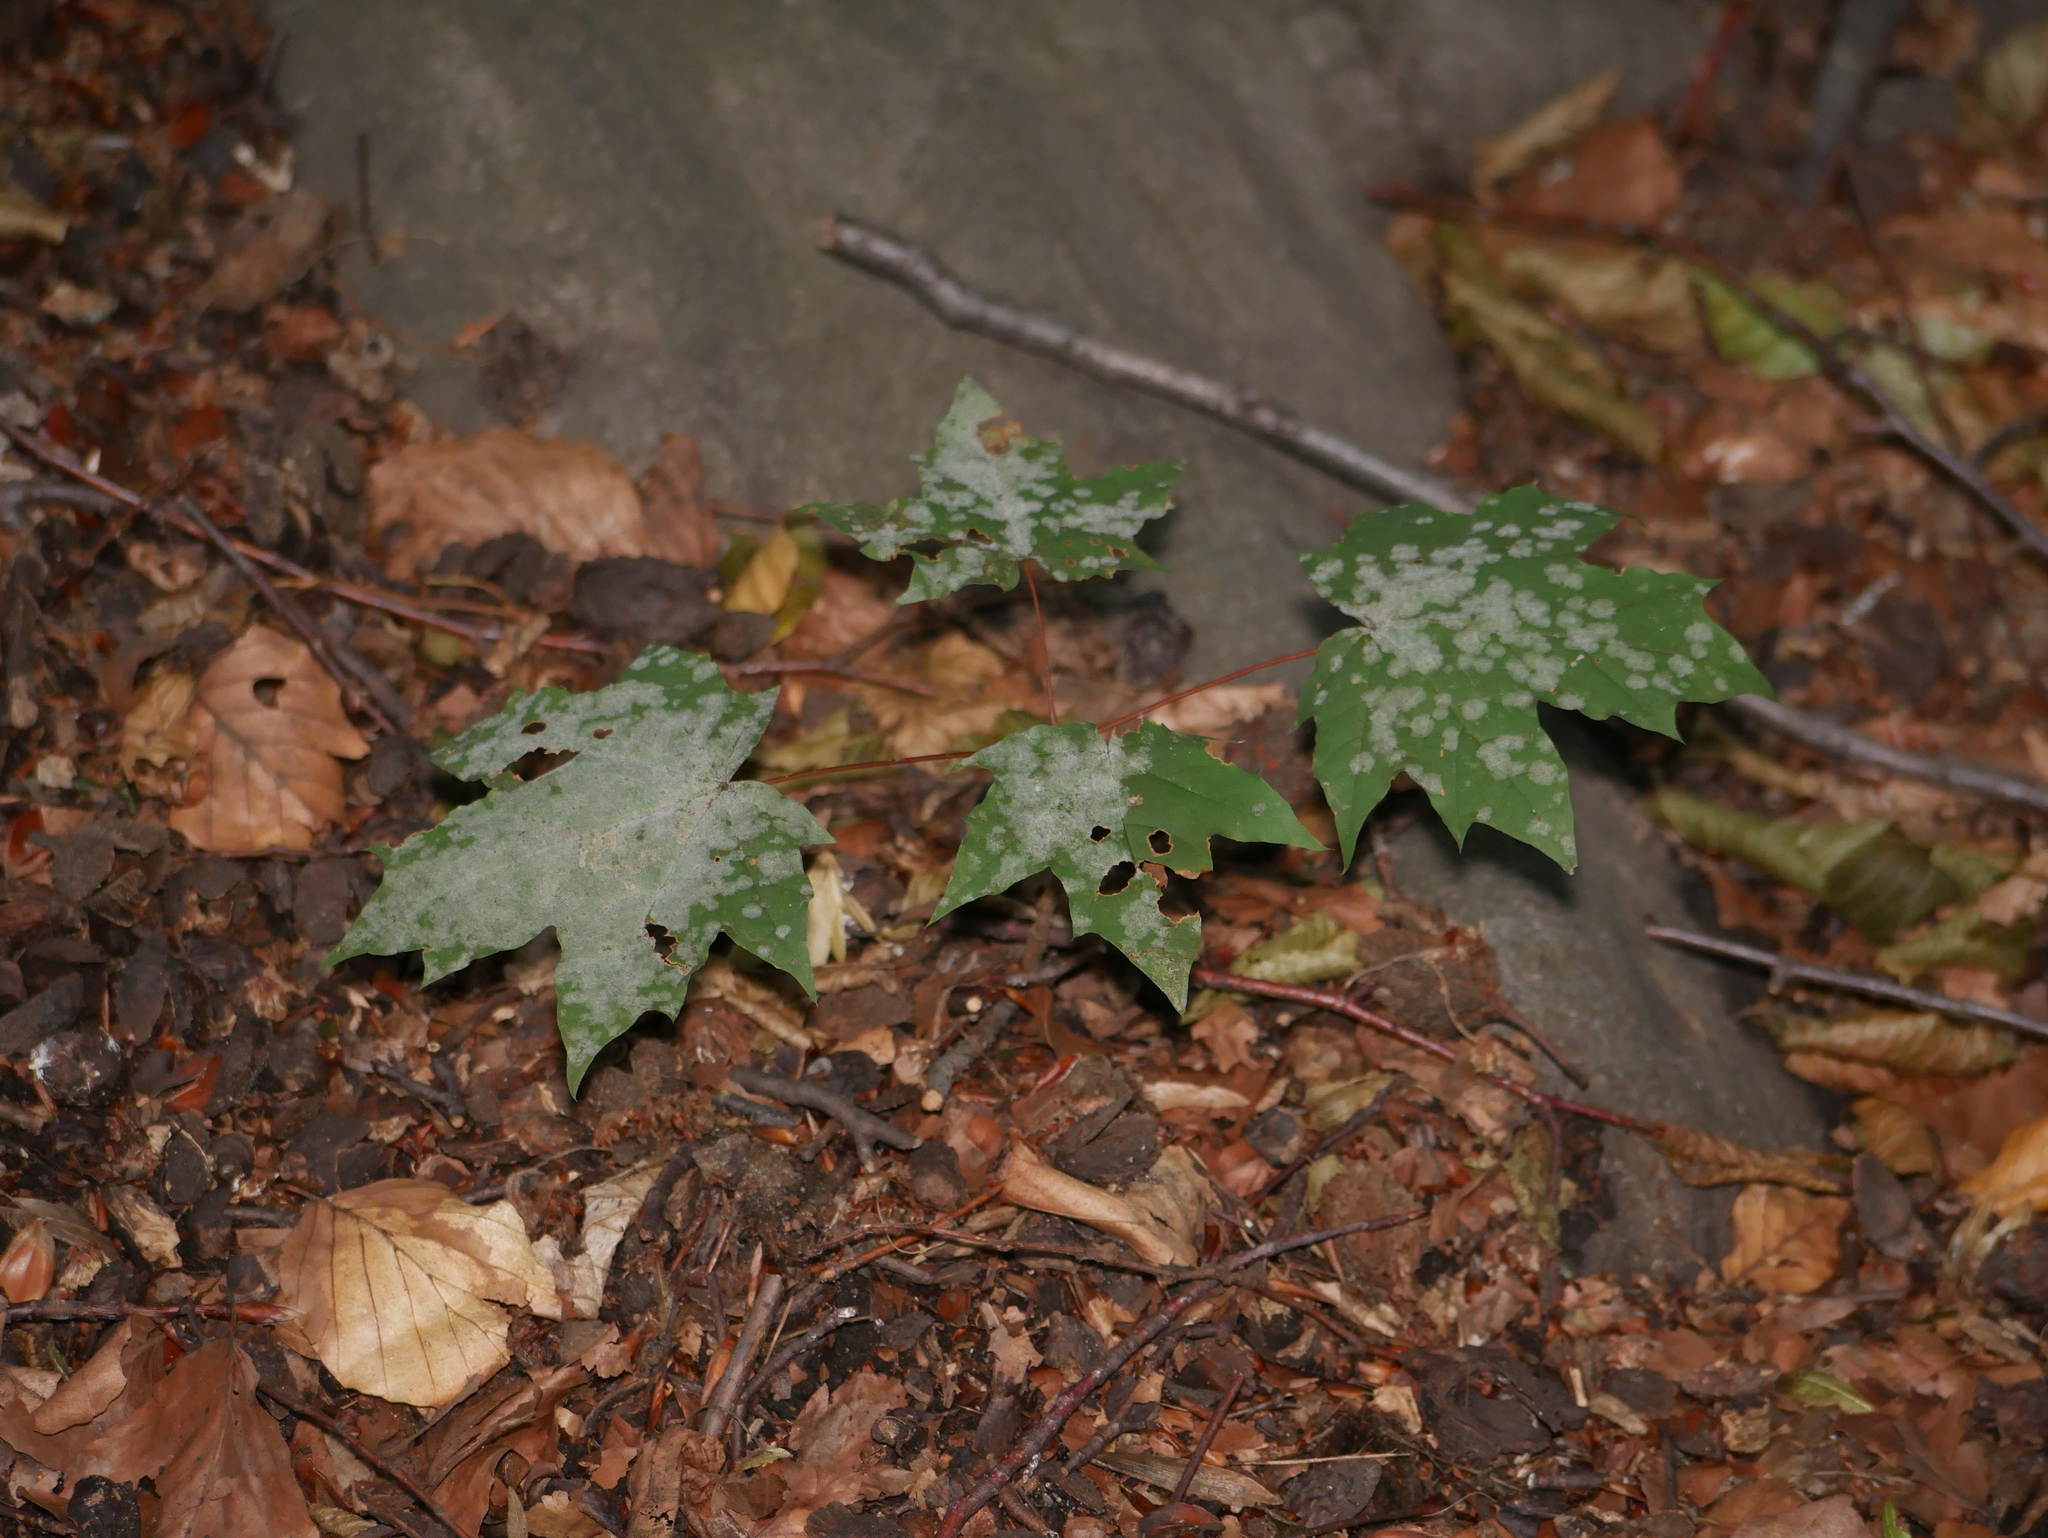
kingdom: Plantae
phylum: Tracheophyta
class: Magnoliopsida
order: Sapindales
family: Sapindaceae
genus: Acer
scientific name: Acer platanoides
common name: Norway maple
